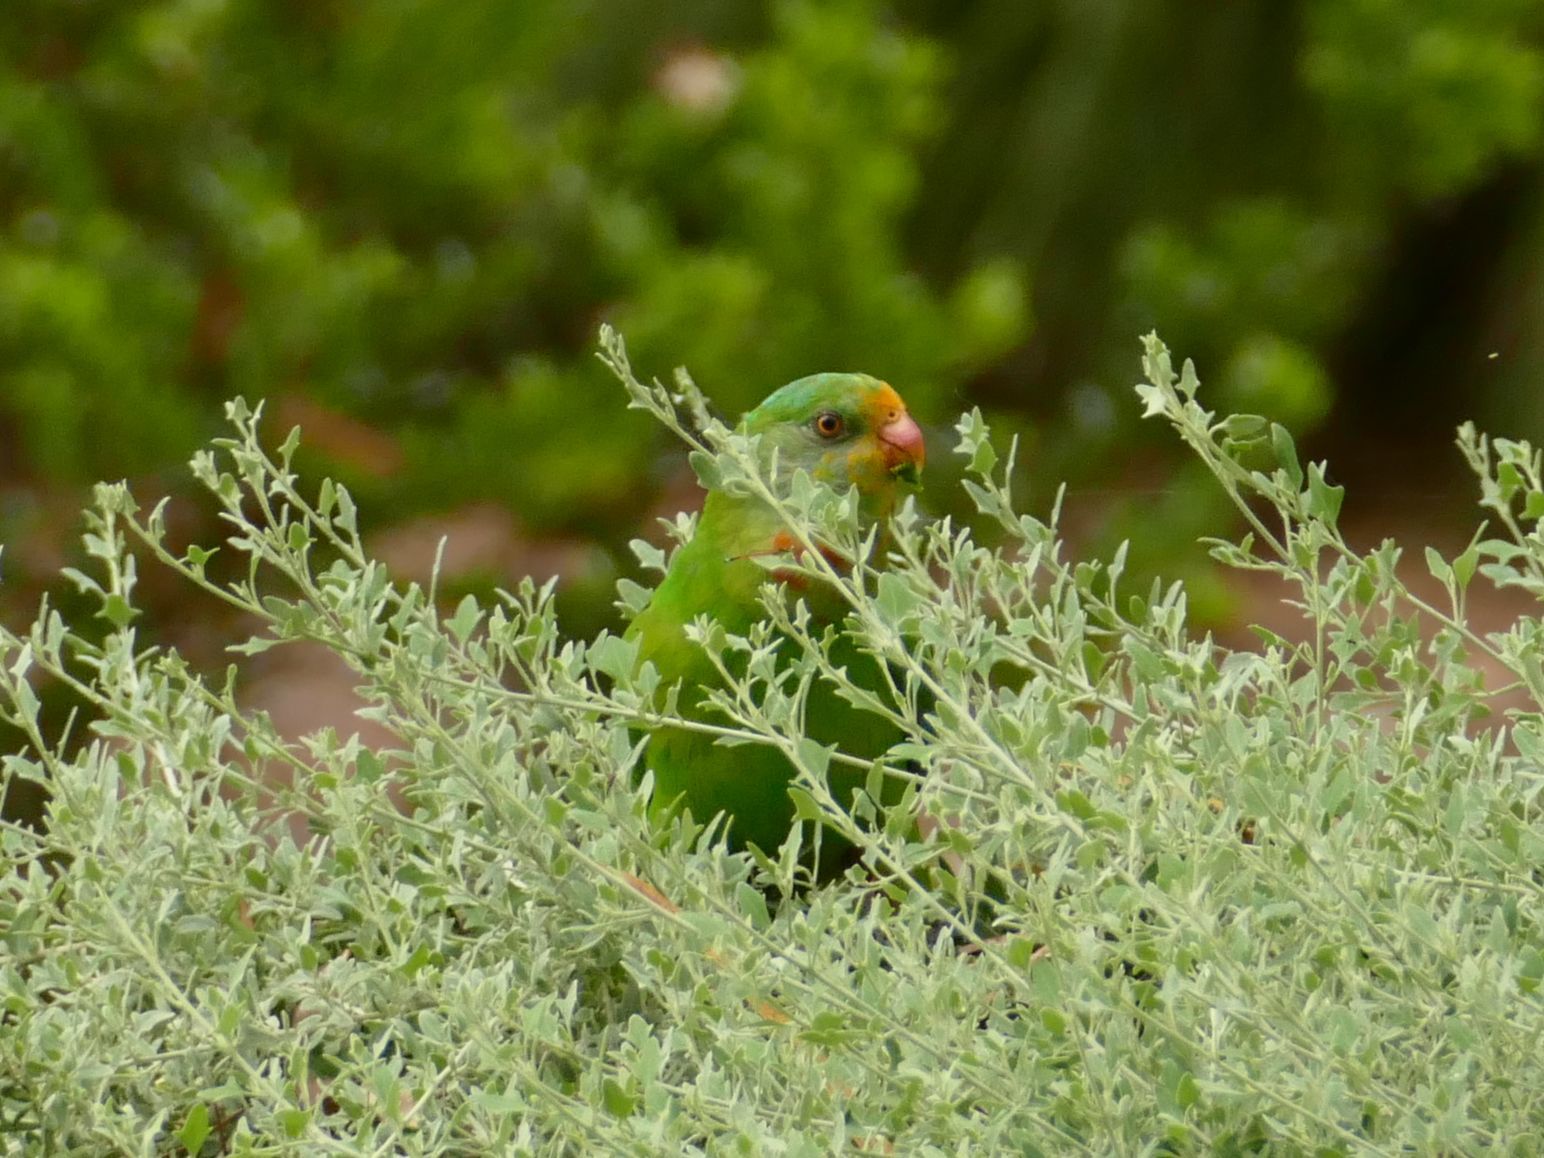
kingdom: Animalia
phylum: Chordata
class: Aves
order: Psittaciformes
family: Psittacidae
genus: Polytelis
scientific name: Polytelis swainsonii
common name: Superb parrot
